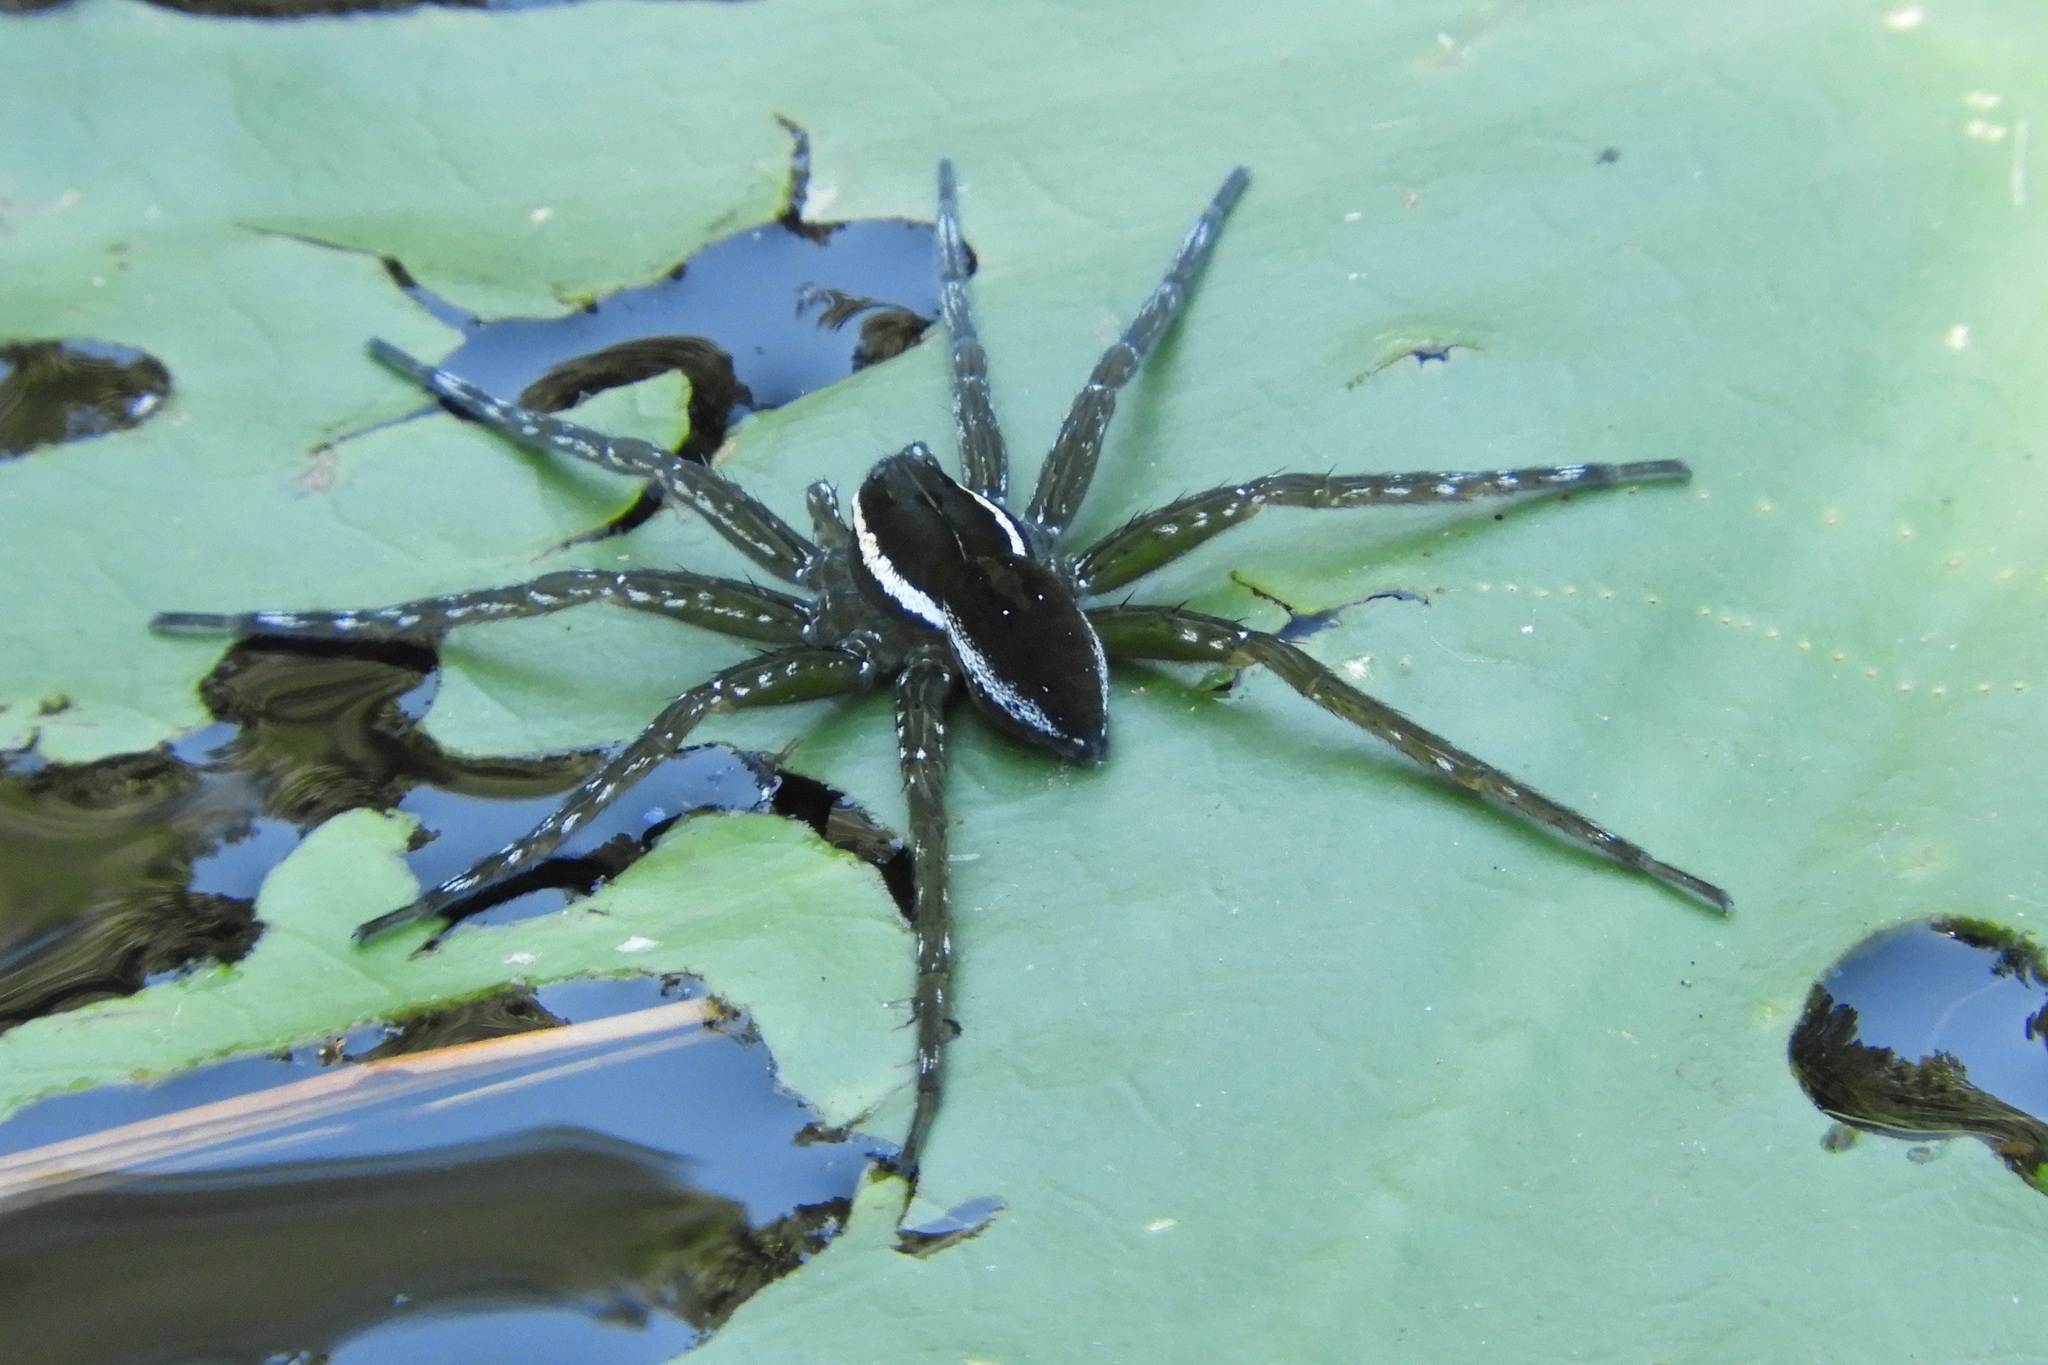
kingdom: Animalia
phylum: Arthropoda
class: Arachnida
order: Araneae
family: Pisauridae
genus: Dolomedes
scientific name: Dolomedes triton
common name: Six-spotted fishing spider
